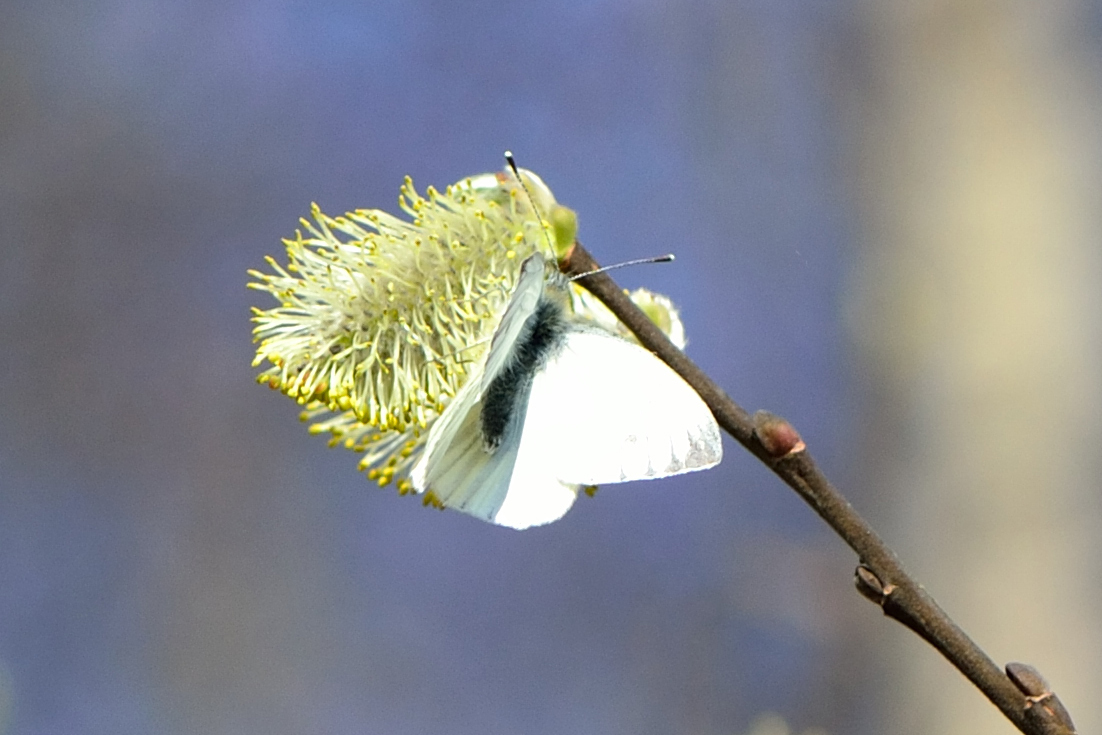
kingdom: Animalia
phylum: Arthropoda
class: Insecta
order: Lepidoptera
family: Pieridae
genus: Pieris
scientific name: Pieris napi
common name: Green-veined white
